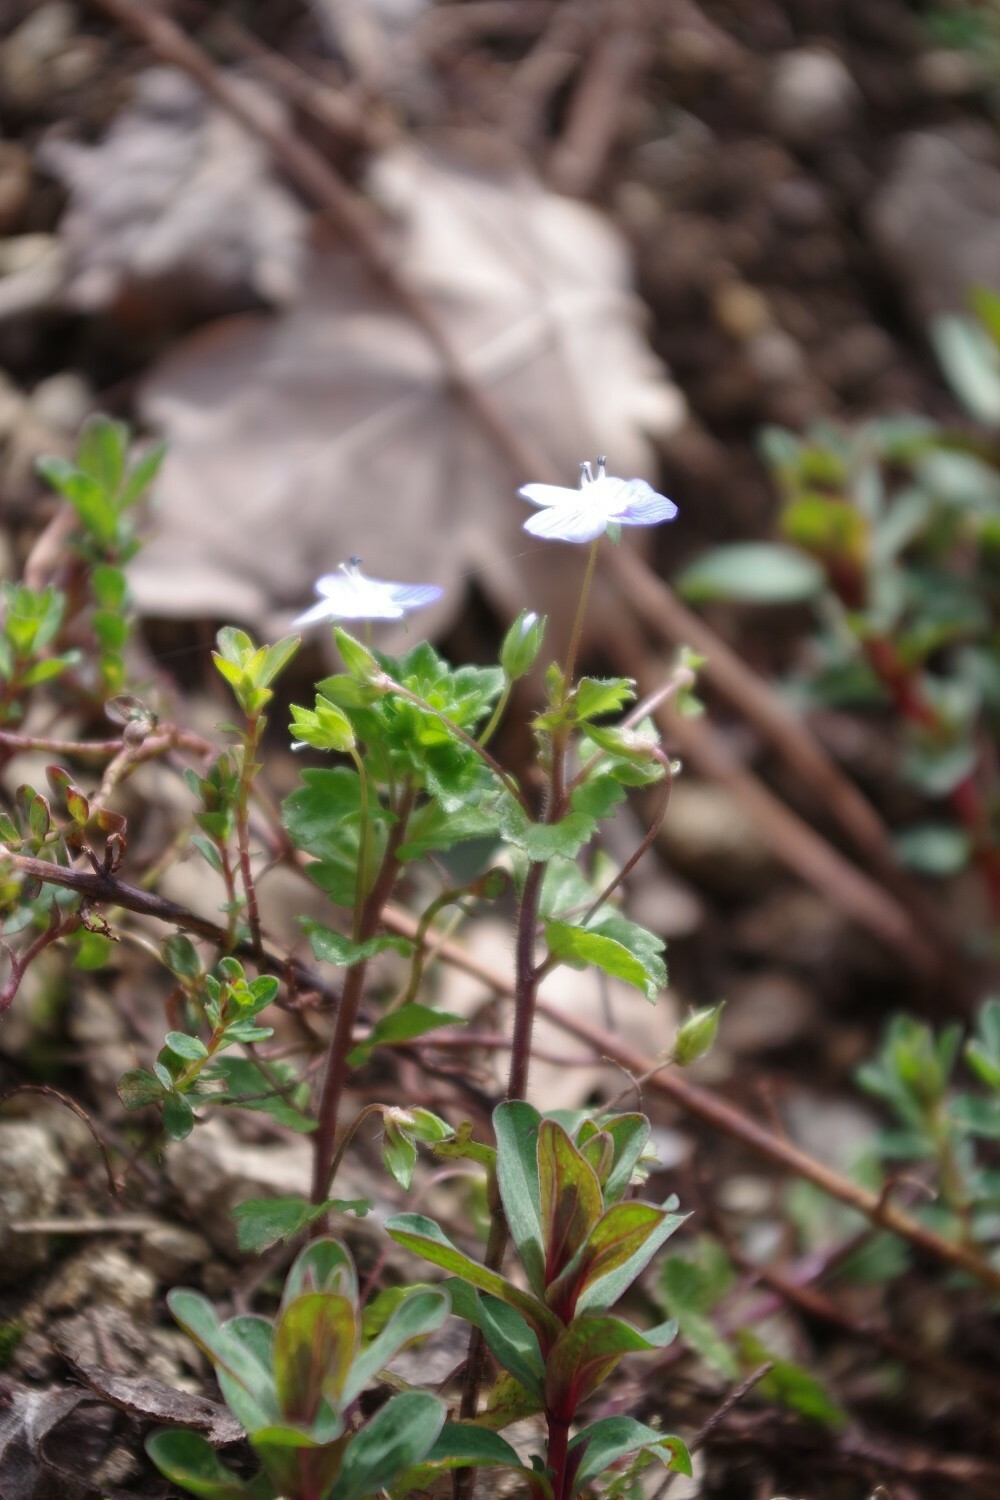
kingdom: Plantae
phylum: Tracheophyta
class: Magnoliopsida
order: Lamiales
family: Plantaginaceae
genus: Veronica
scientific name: Veronica persica
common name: Common field-speedwell
